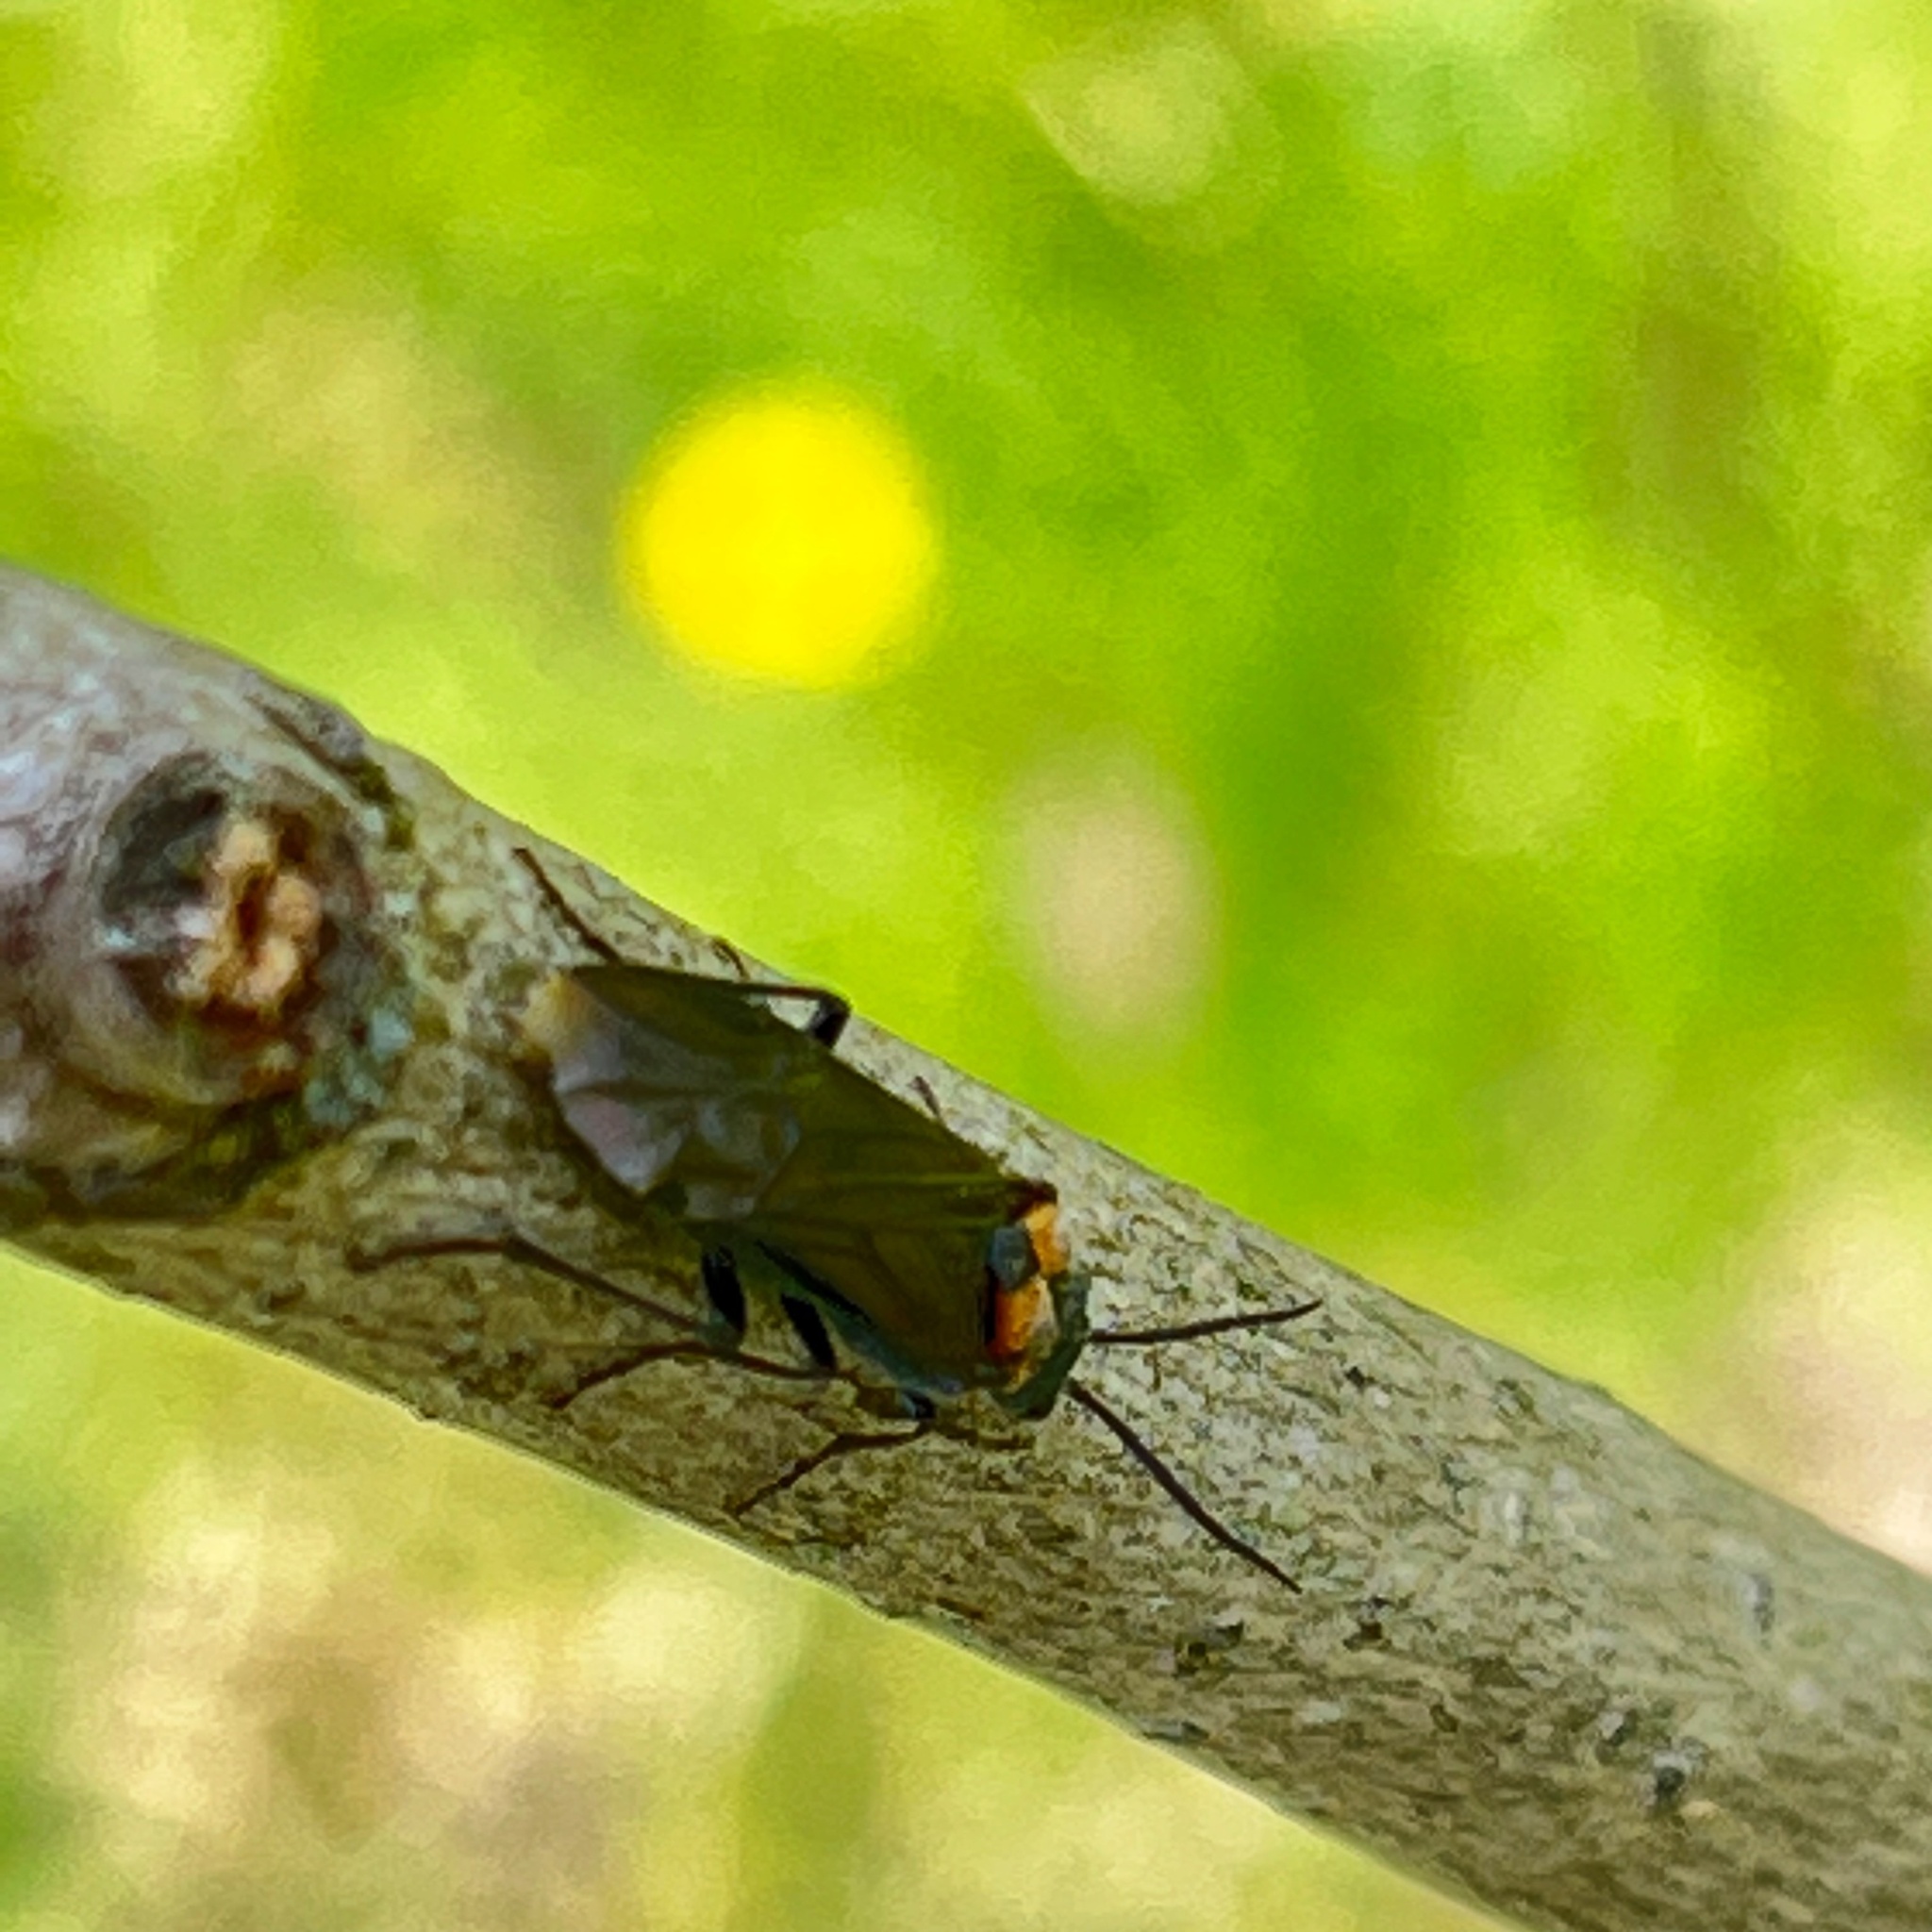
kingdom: Animalia
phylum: Arthropoda
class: Insecta
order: Hymenoptera
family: Tenthredinidae
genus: Dolerus
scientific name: Dolerus unicolor
